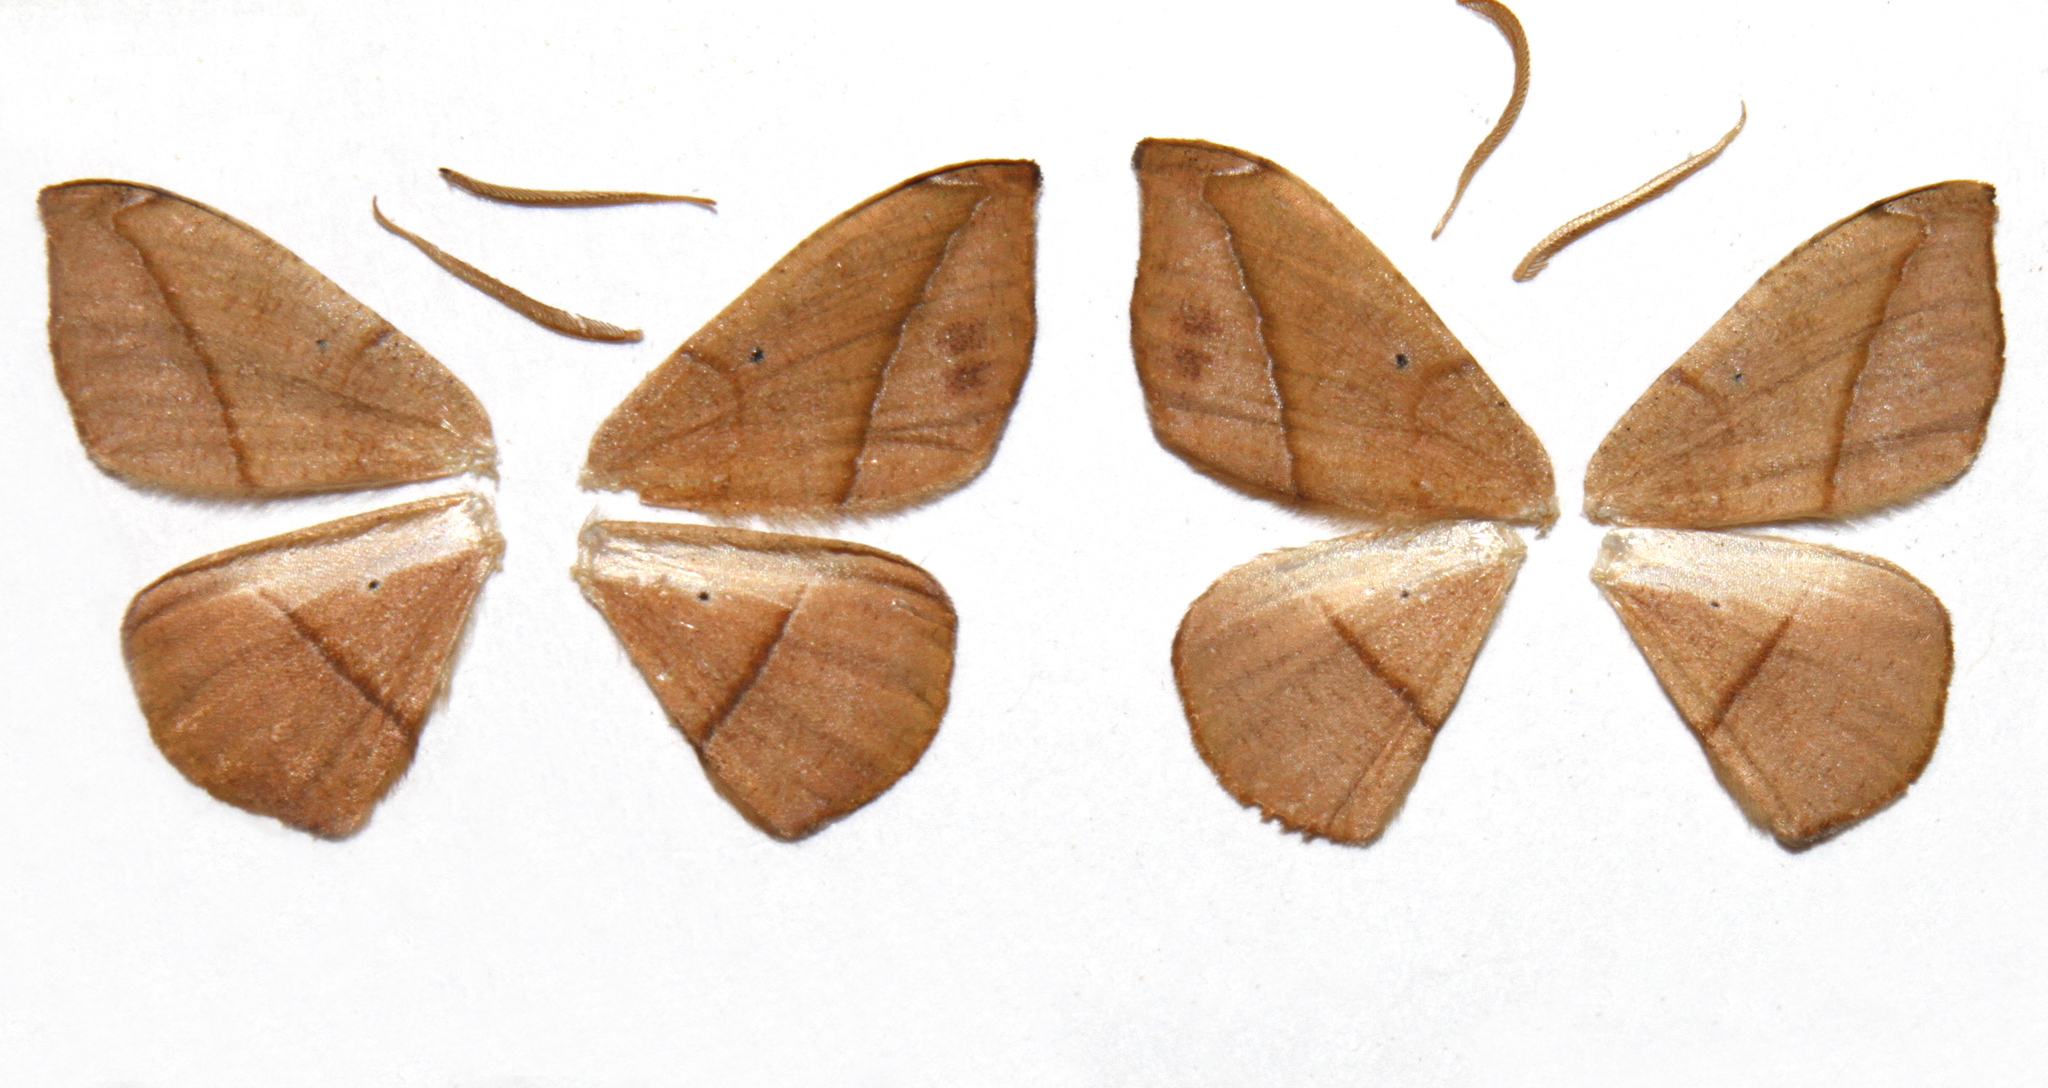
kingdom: Animalia
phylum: Arthropoda
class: Insecta
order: Lepidoptera
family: Geometridae
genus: Patalene
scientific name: Patalene olyzonaria
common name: Juniper geometer moth
